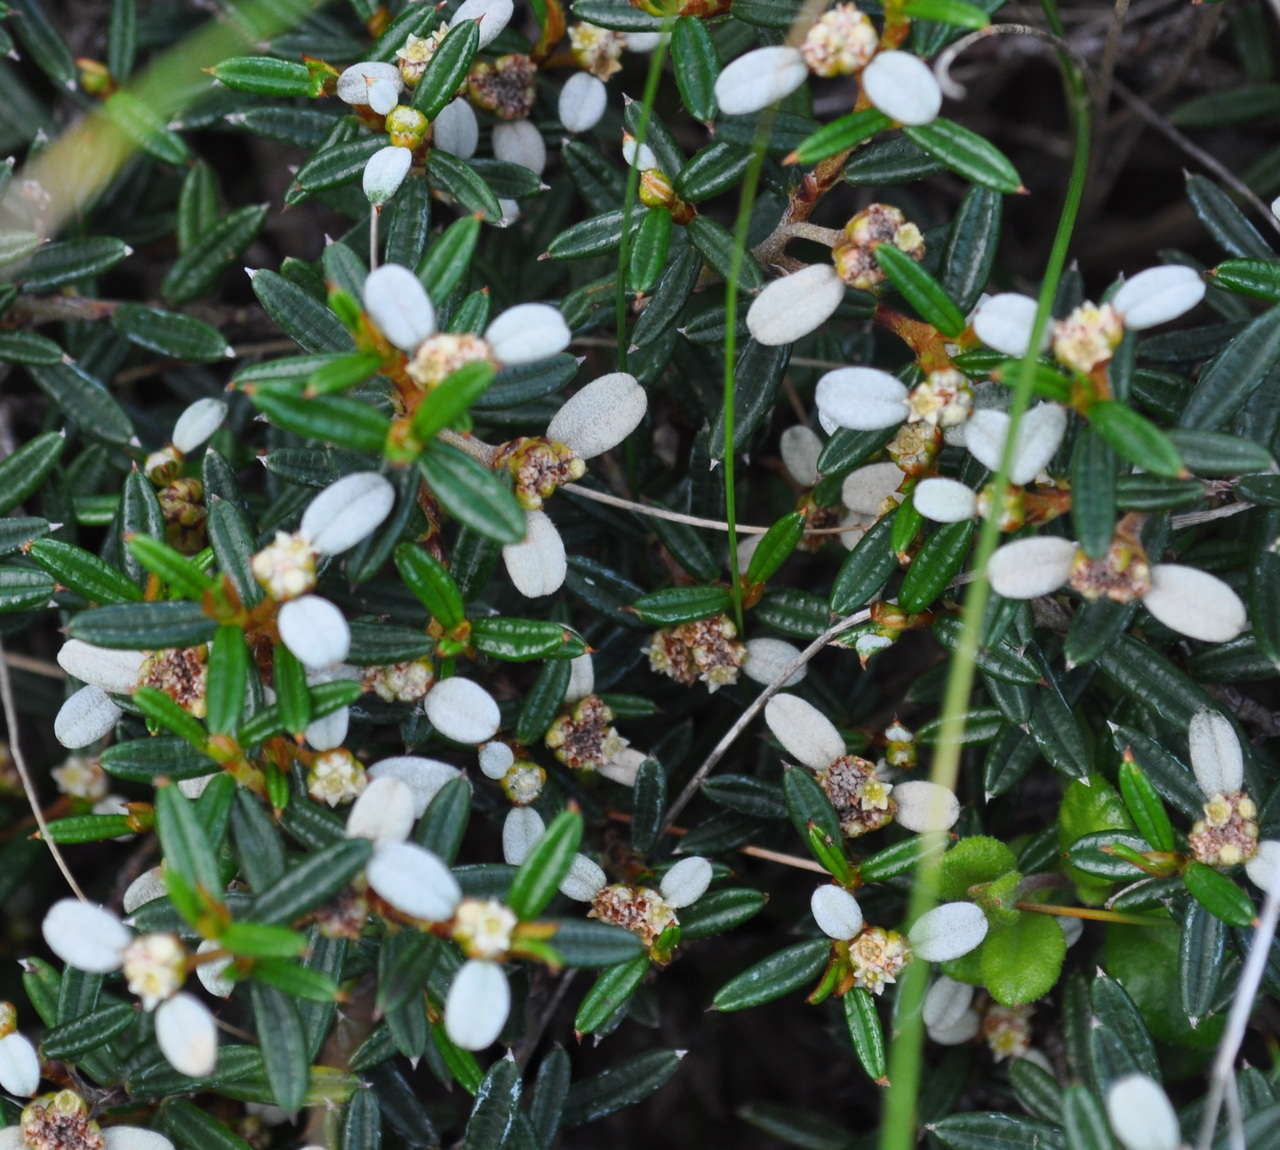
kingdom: Plantae
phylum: Tracheophyta
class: Magnoliopsida
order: Rosales
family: Rhamnaceae
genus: Spyridium
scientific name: Spyridium vexilliferum
